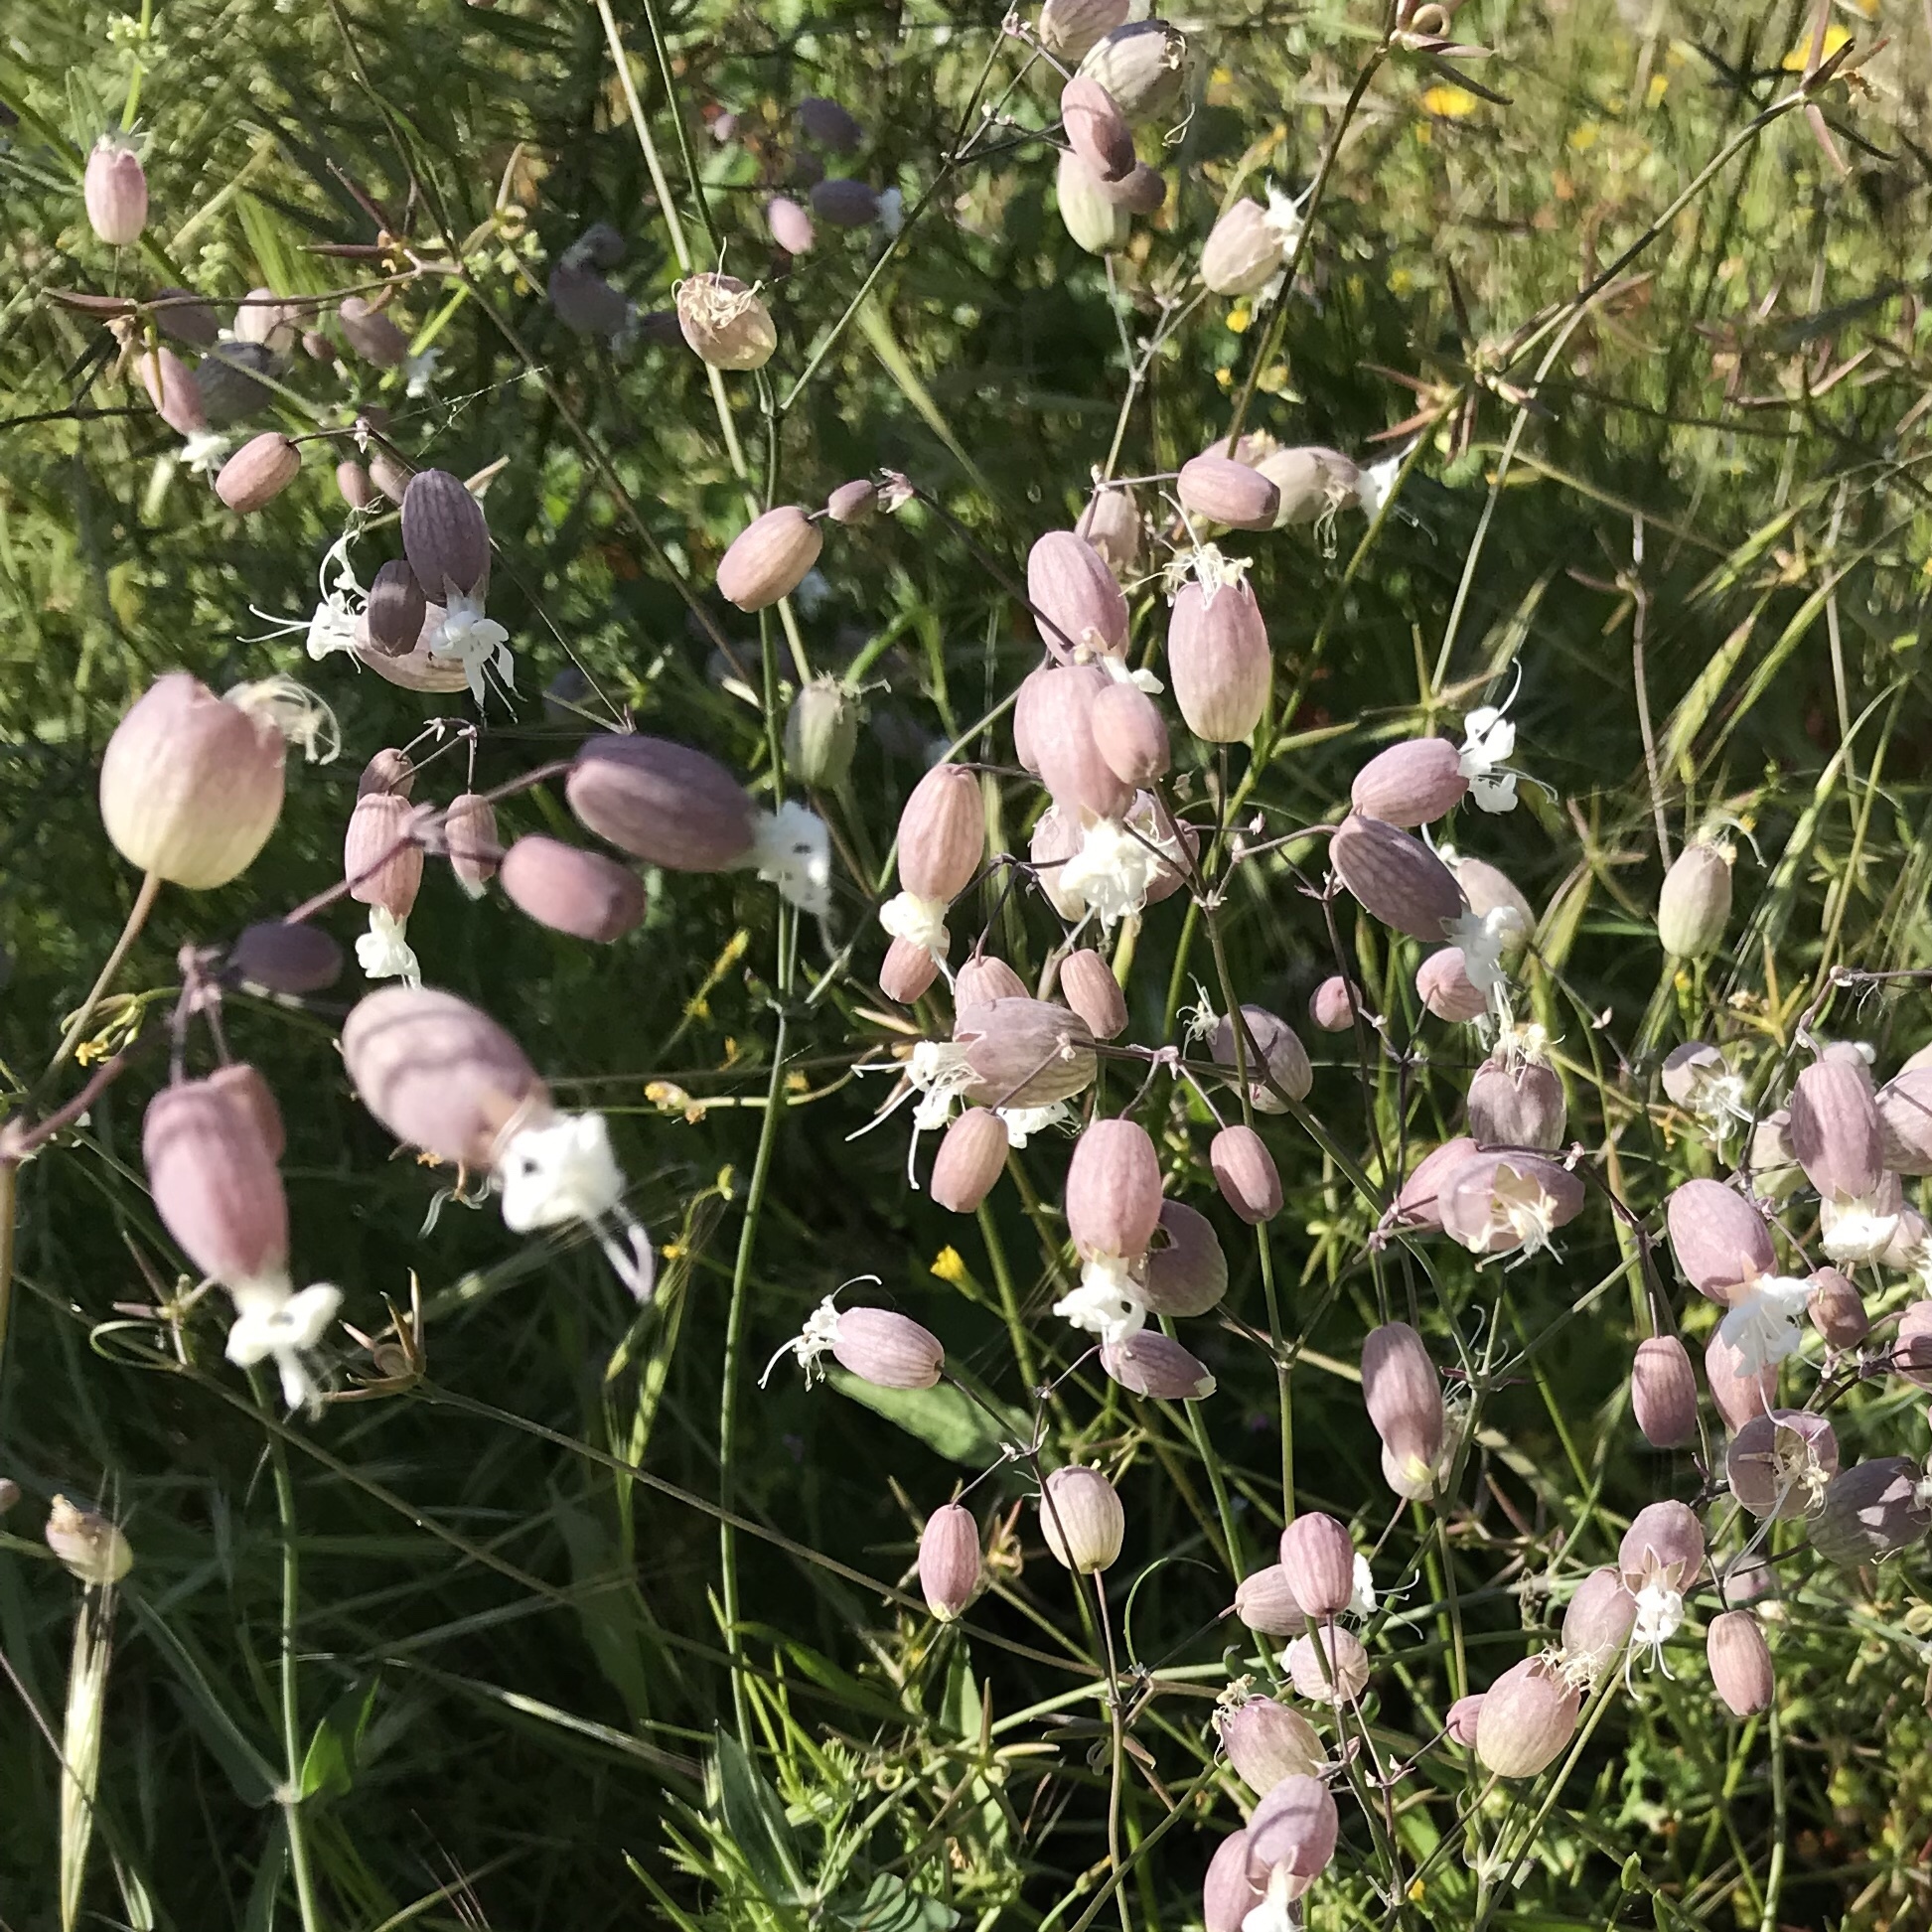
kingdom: Plantae
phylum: Tracheophyta
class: Magnoliopsida
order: Caryophyllales
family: Caryophyllaceae
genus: Silene
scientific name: Silene vulgaris
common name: Bladder campion
